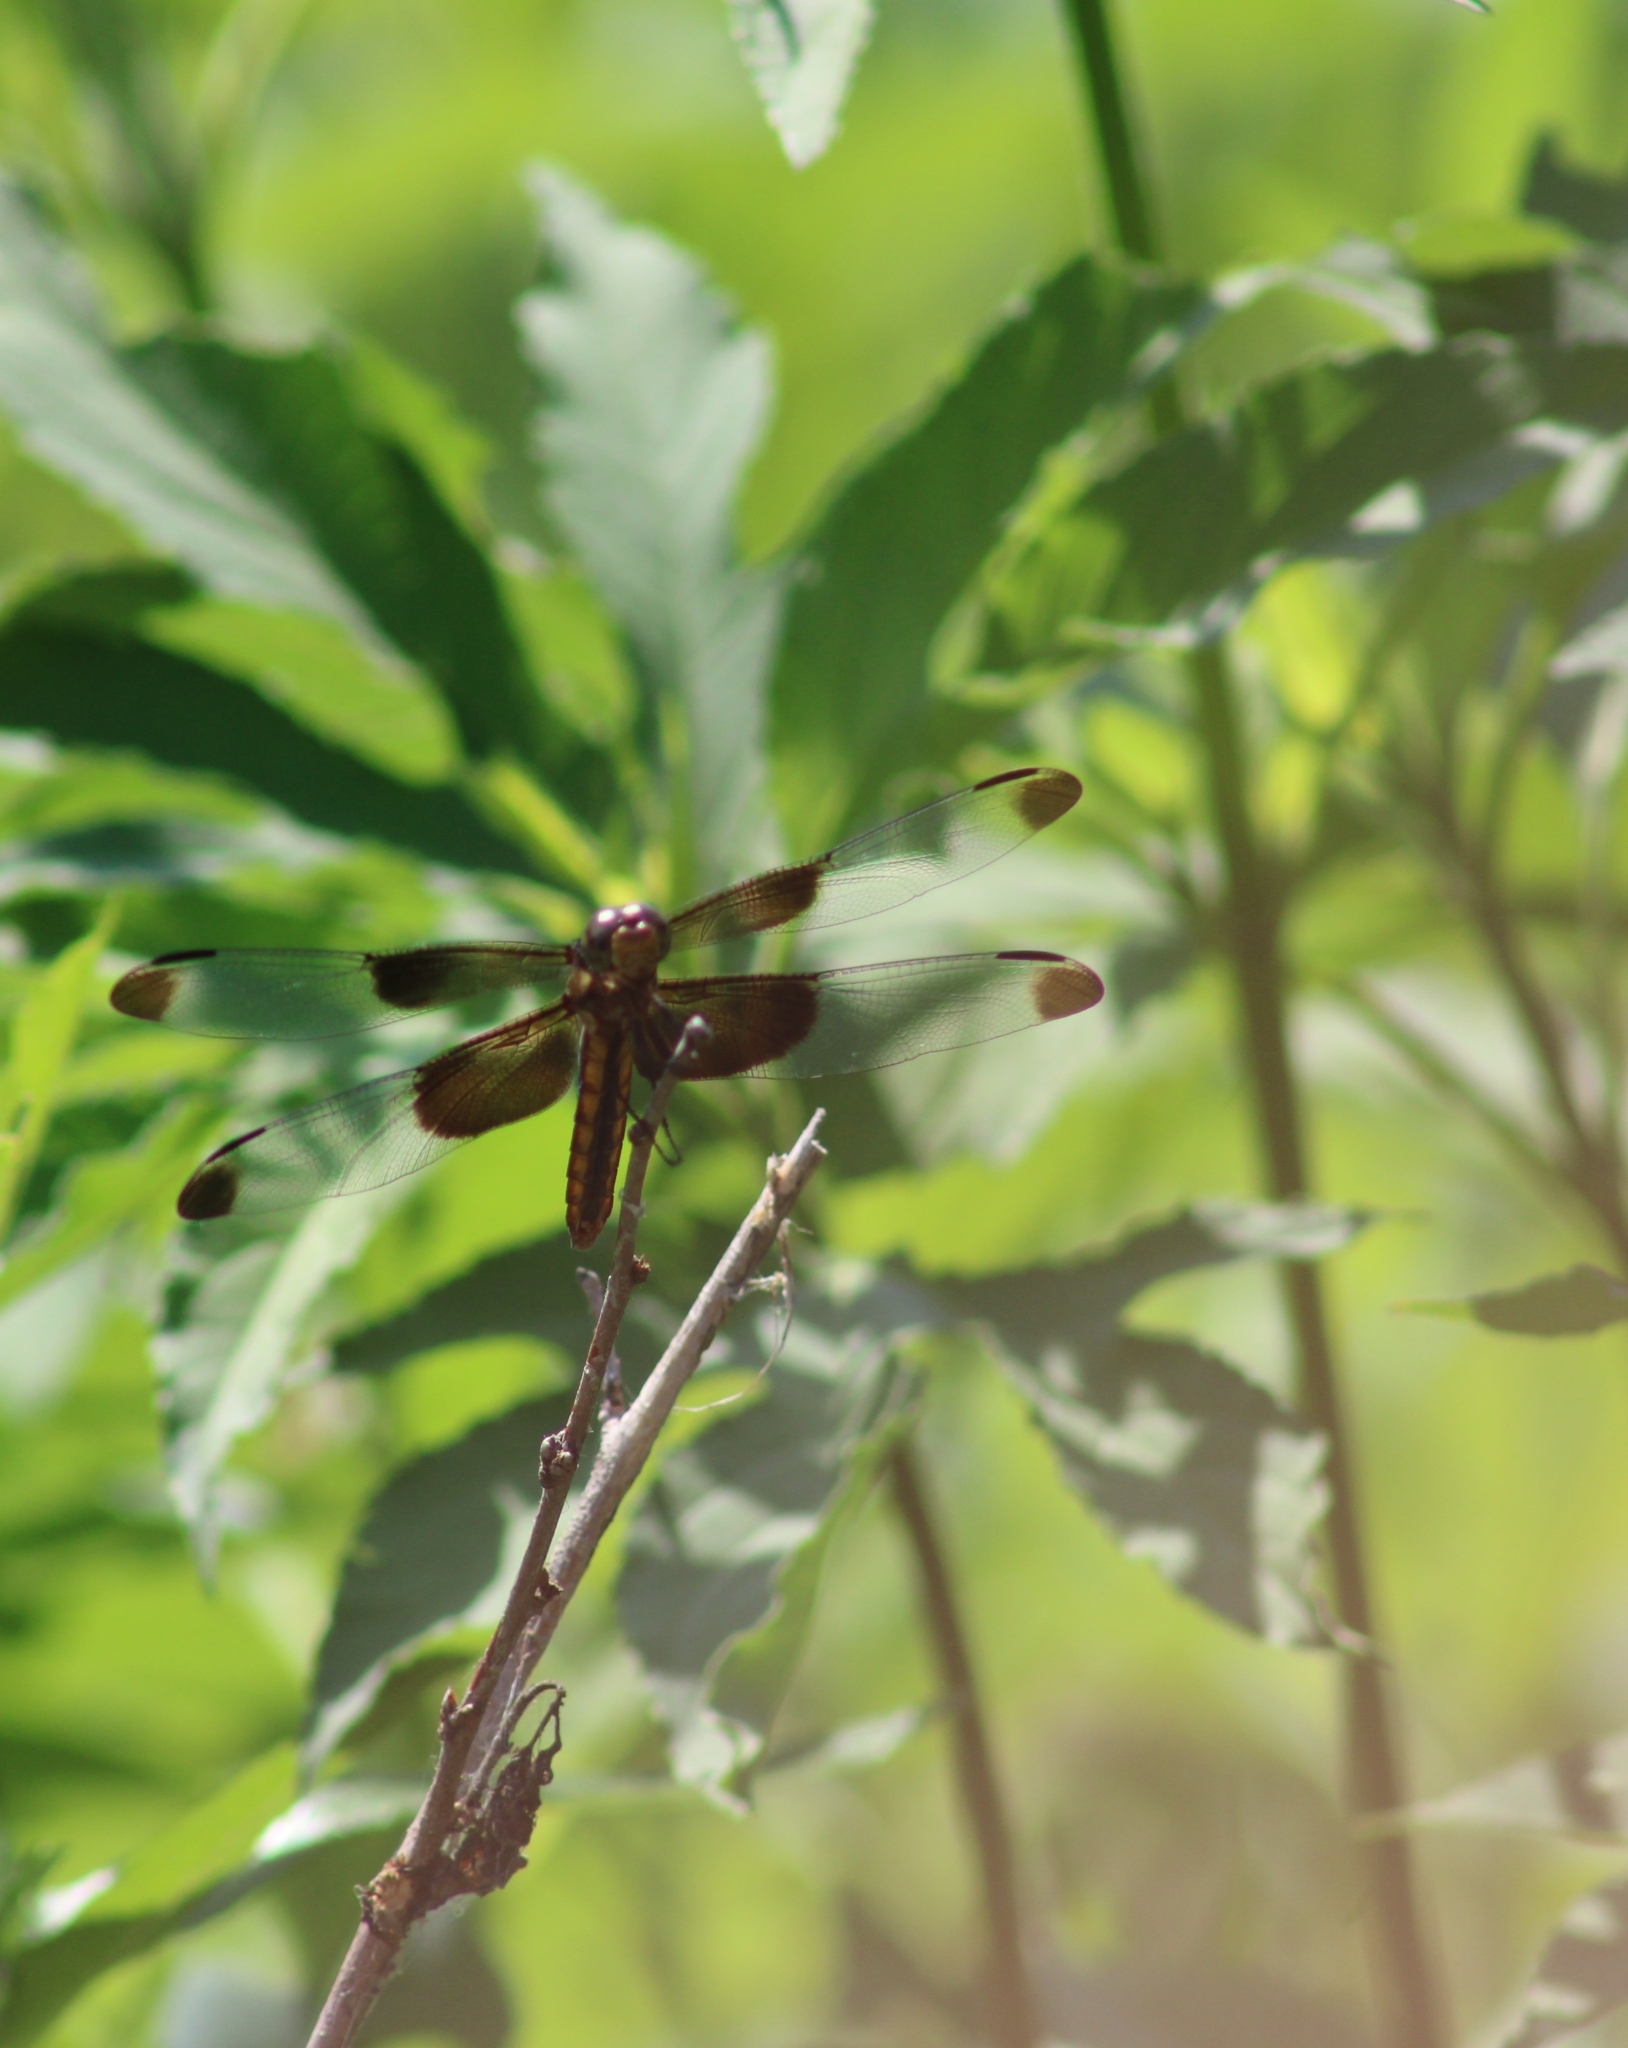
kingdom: Animalia
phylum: Arthropoda
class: Insecta
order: Odonata
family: Libellulidae
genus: Libellula
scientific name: Libellula luctuosa
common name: Widow skimmer
